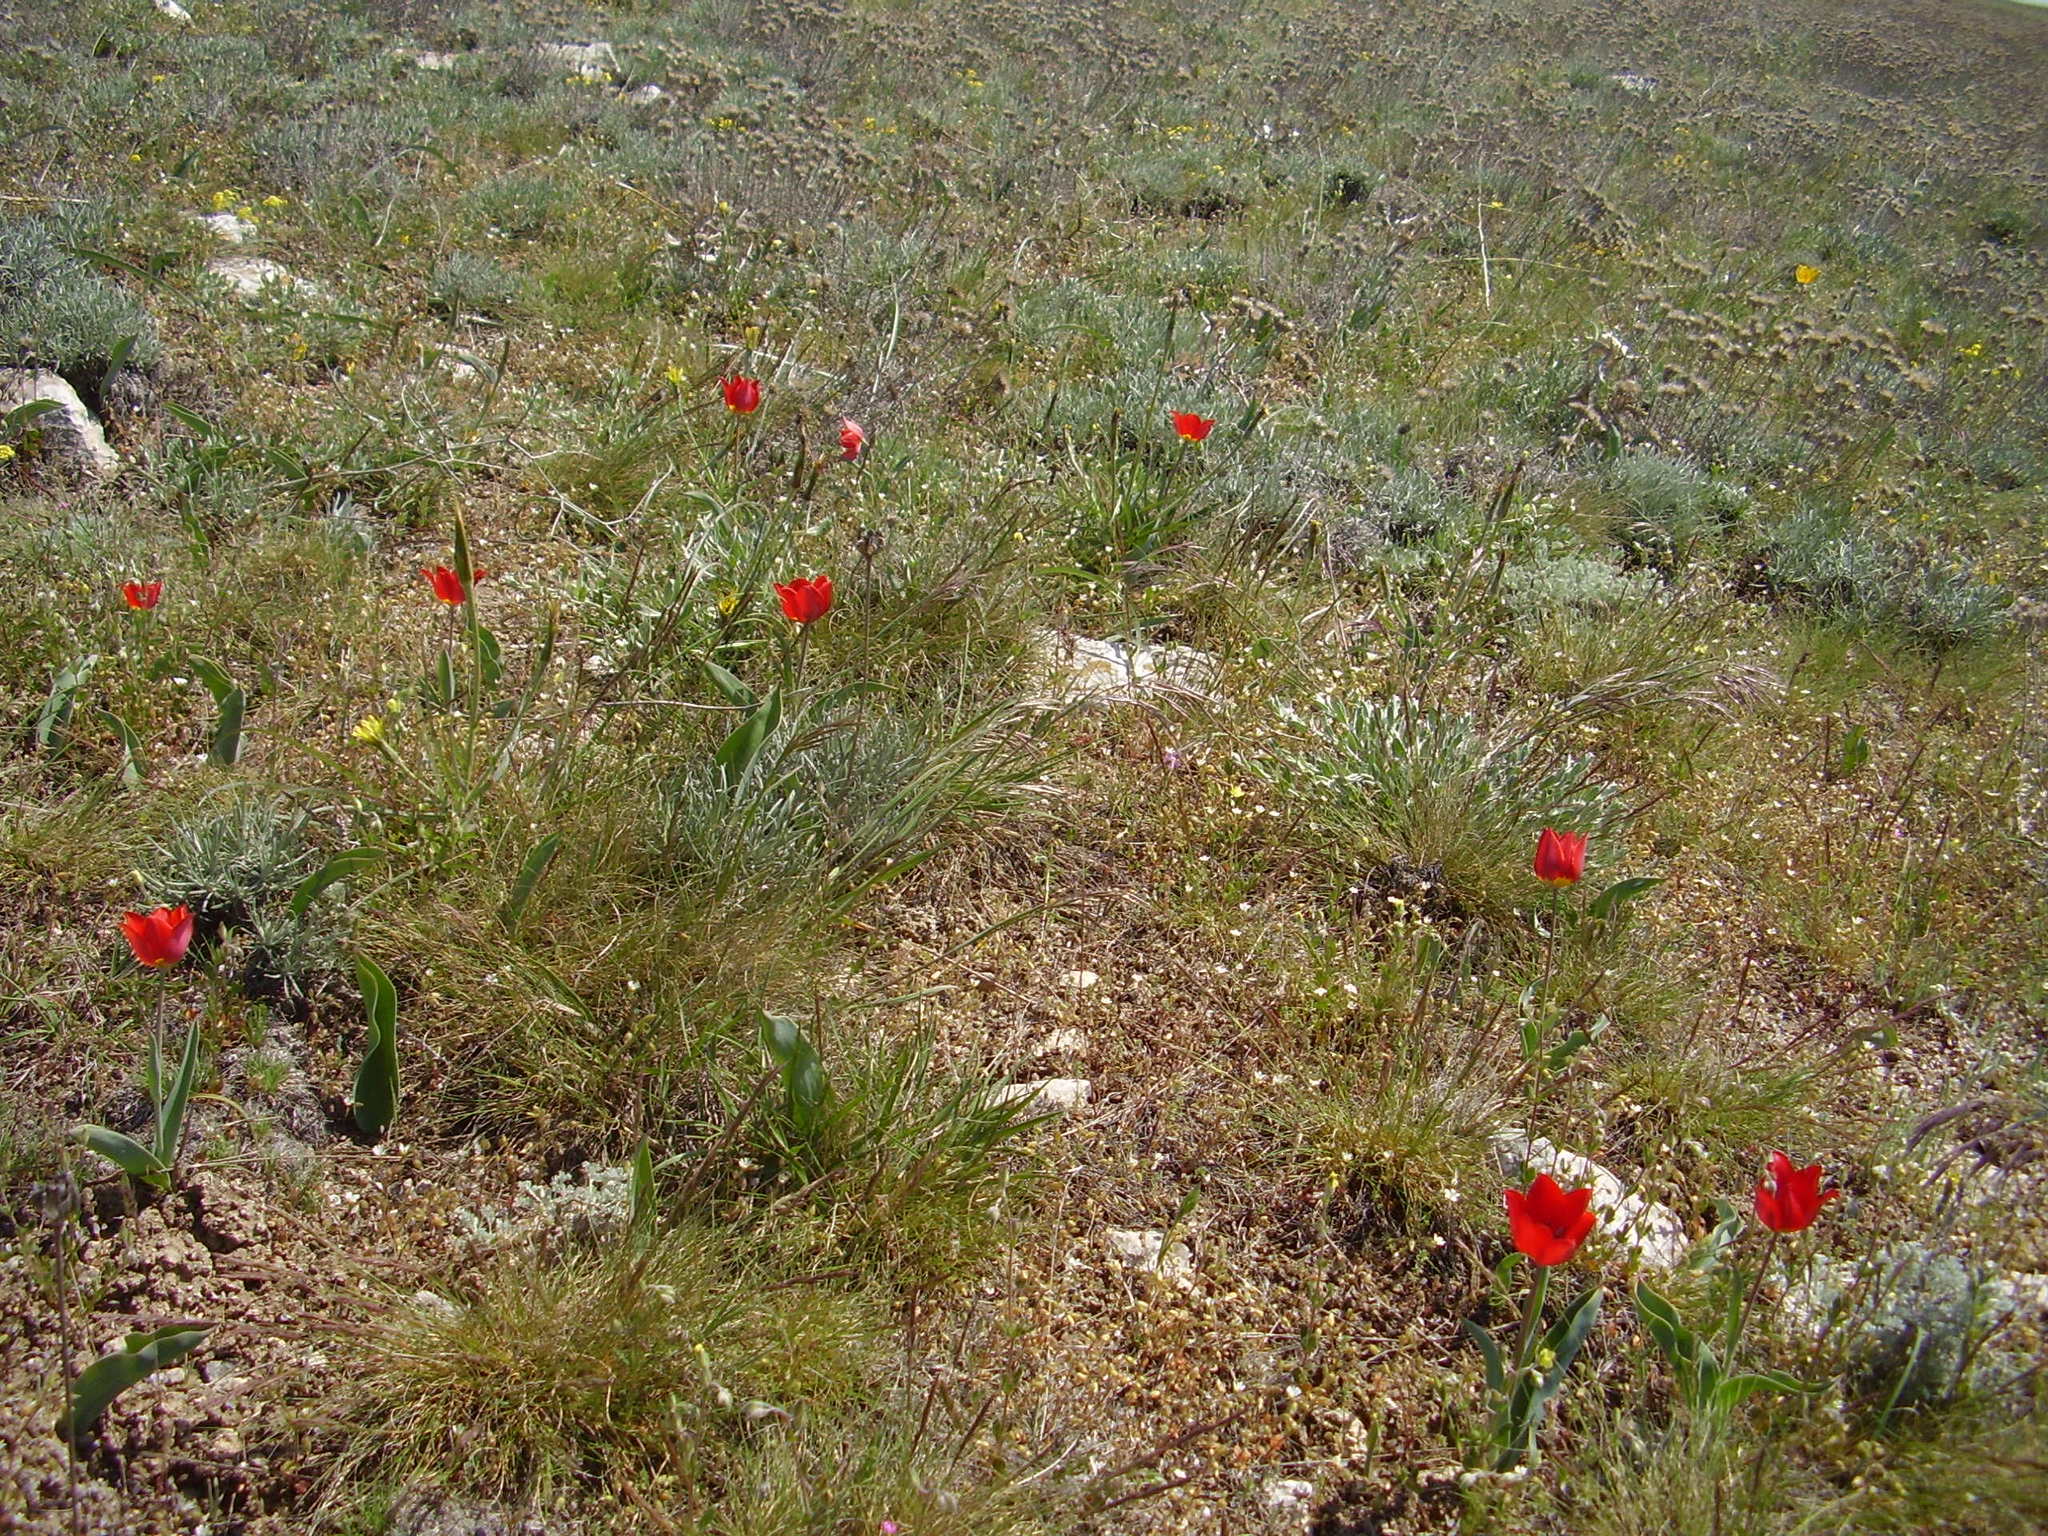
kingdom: Plantae
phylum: Tracheophyta
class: Liliopsida
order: Liliales
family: Liliaceae
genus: Tulipa
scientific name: Tulipa suaveolens
